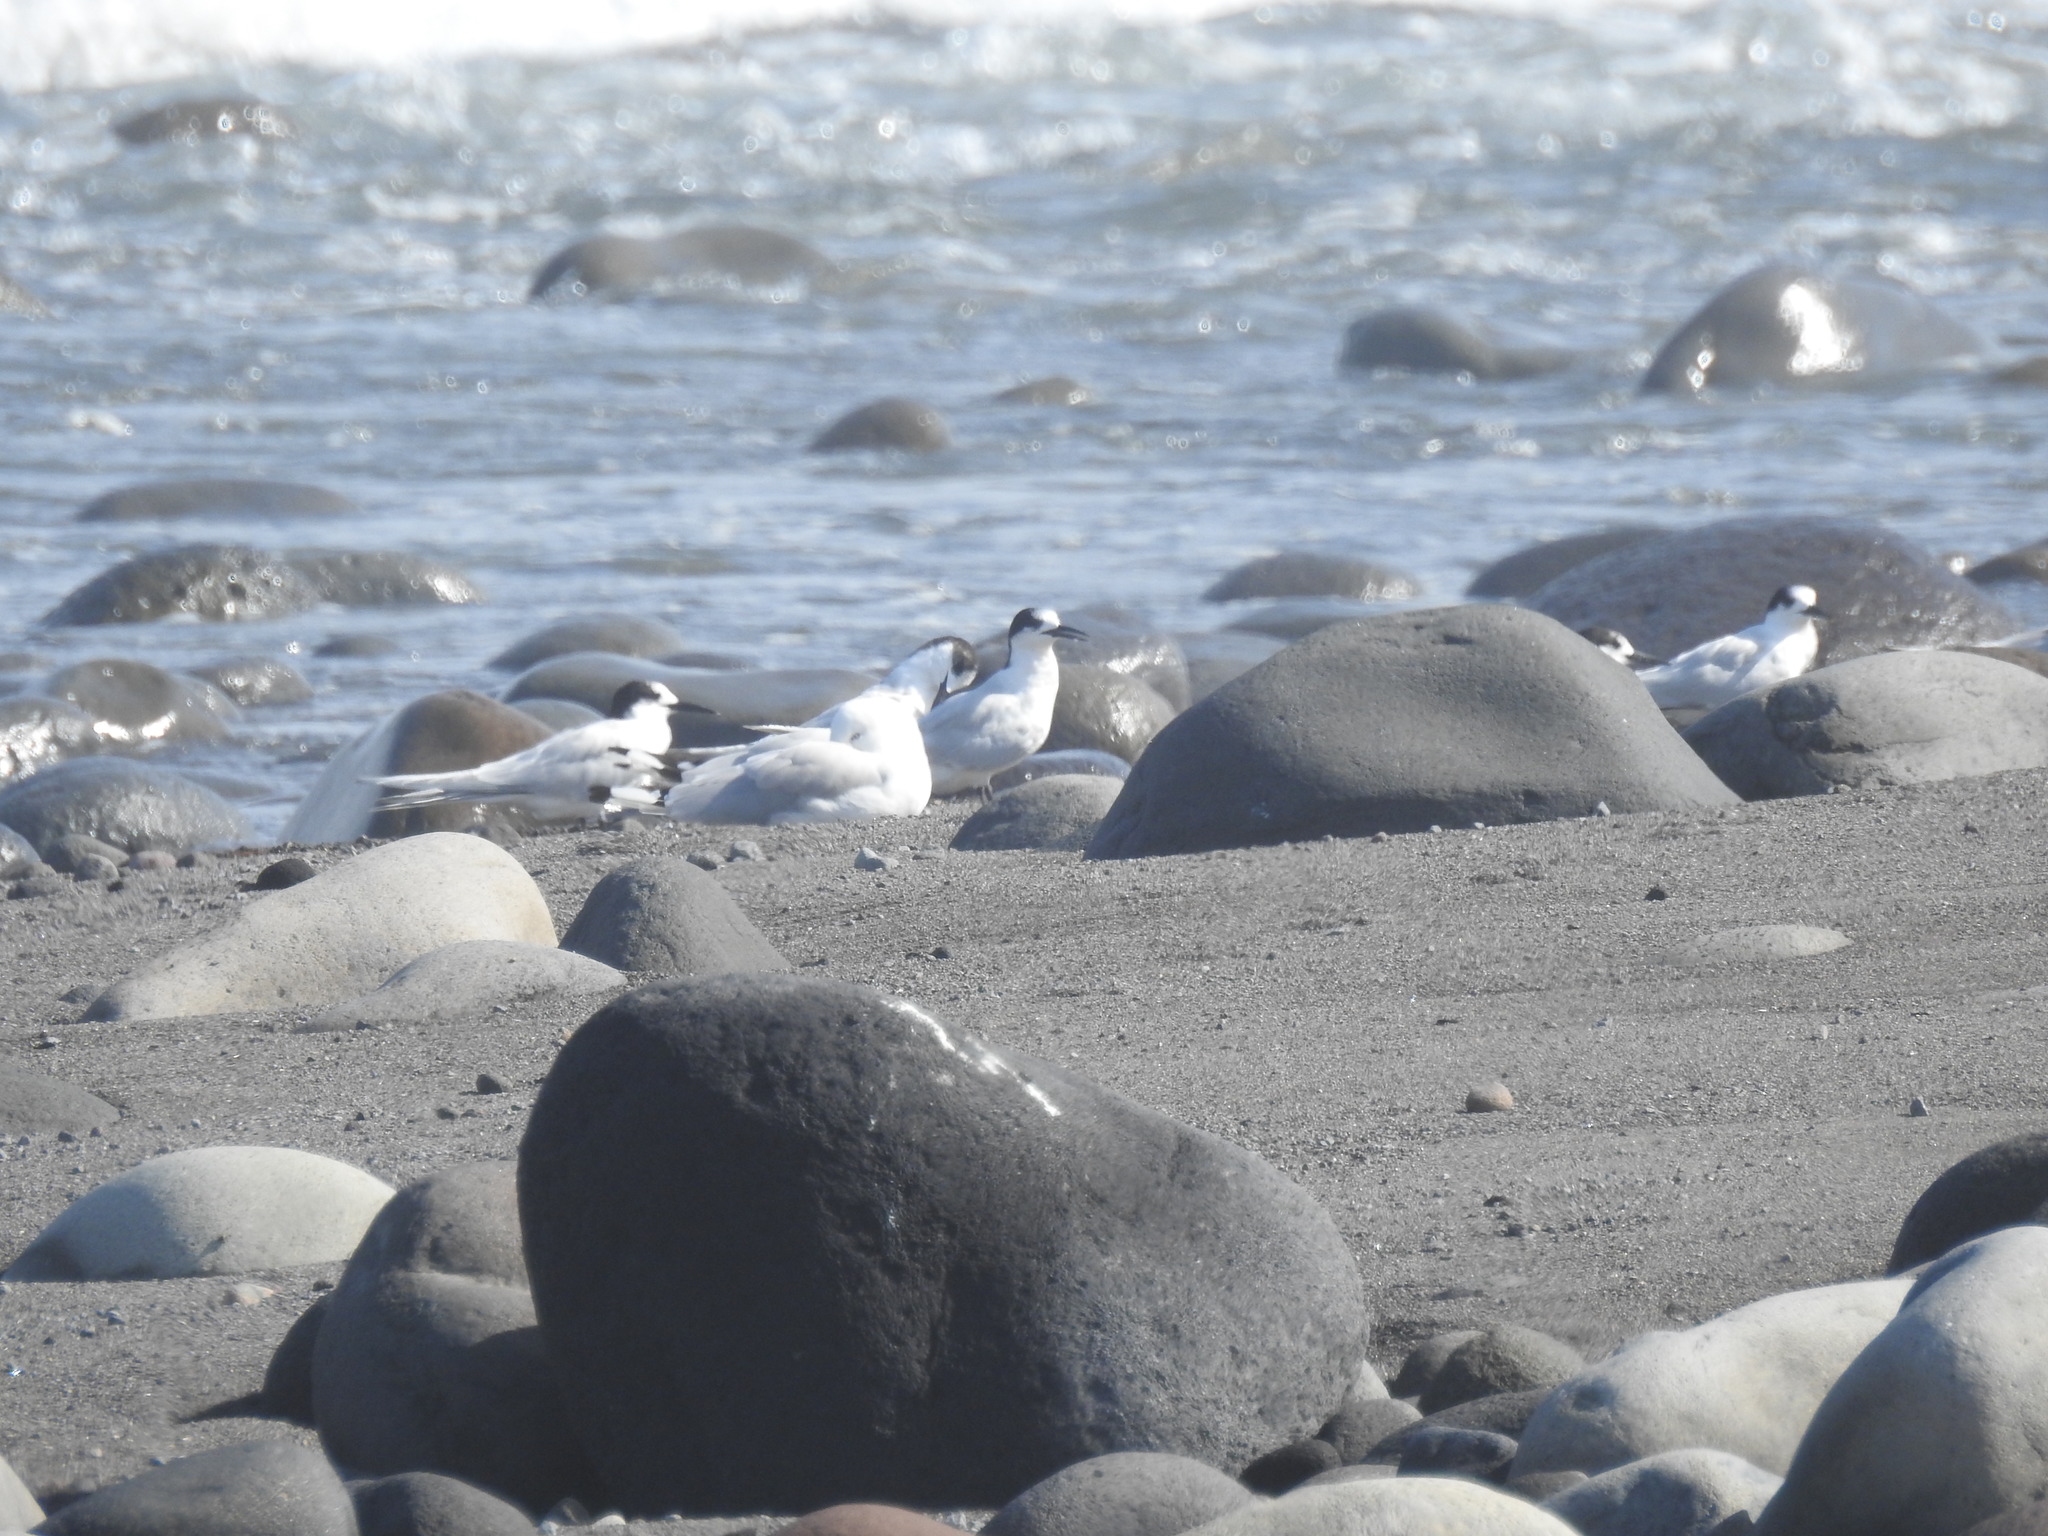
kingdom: Animalia
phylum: Chordata
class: Aves
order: Charadriiformes
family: Laridae
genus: Sterna
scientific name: Sterna striata
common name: White-fronted tern
